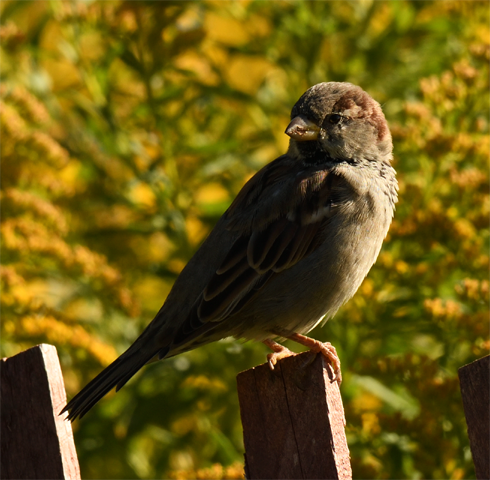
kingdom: Animalia
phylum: Chordata
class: Aves
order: Passeriformes
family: Passeridae
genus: Passer
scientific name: Passer domesticus
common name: House sparrow
